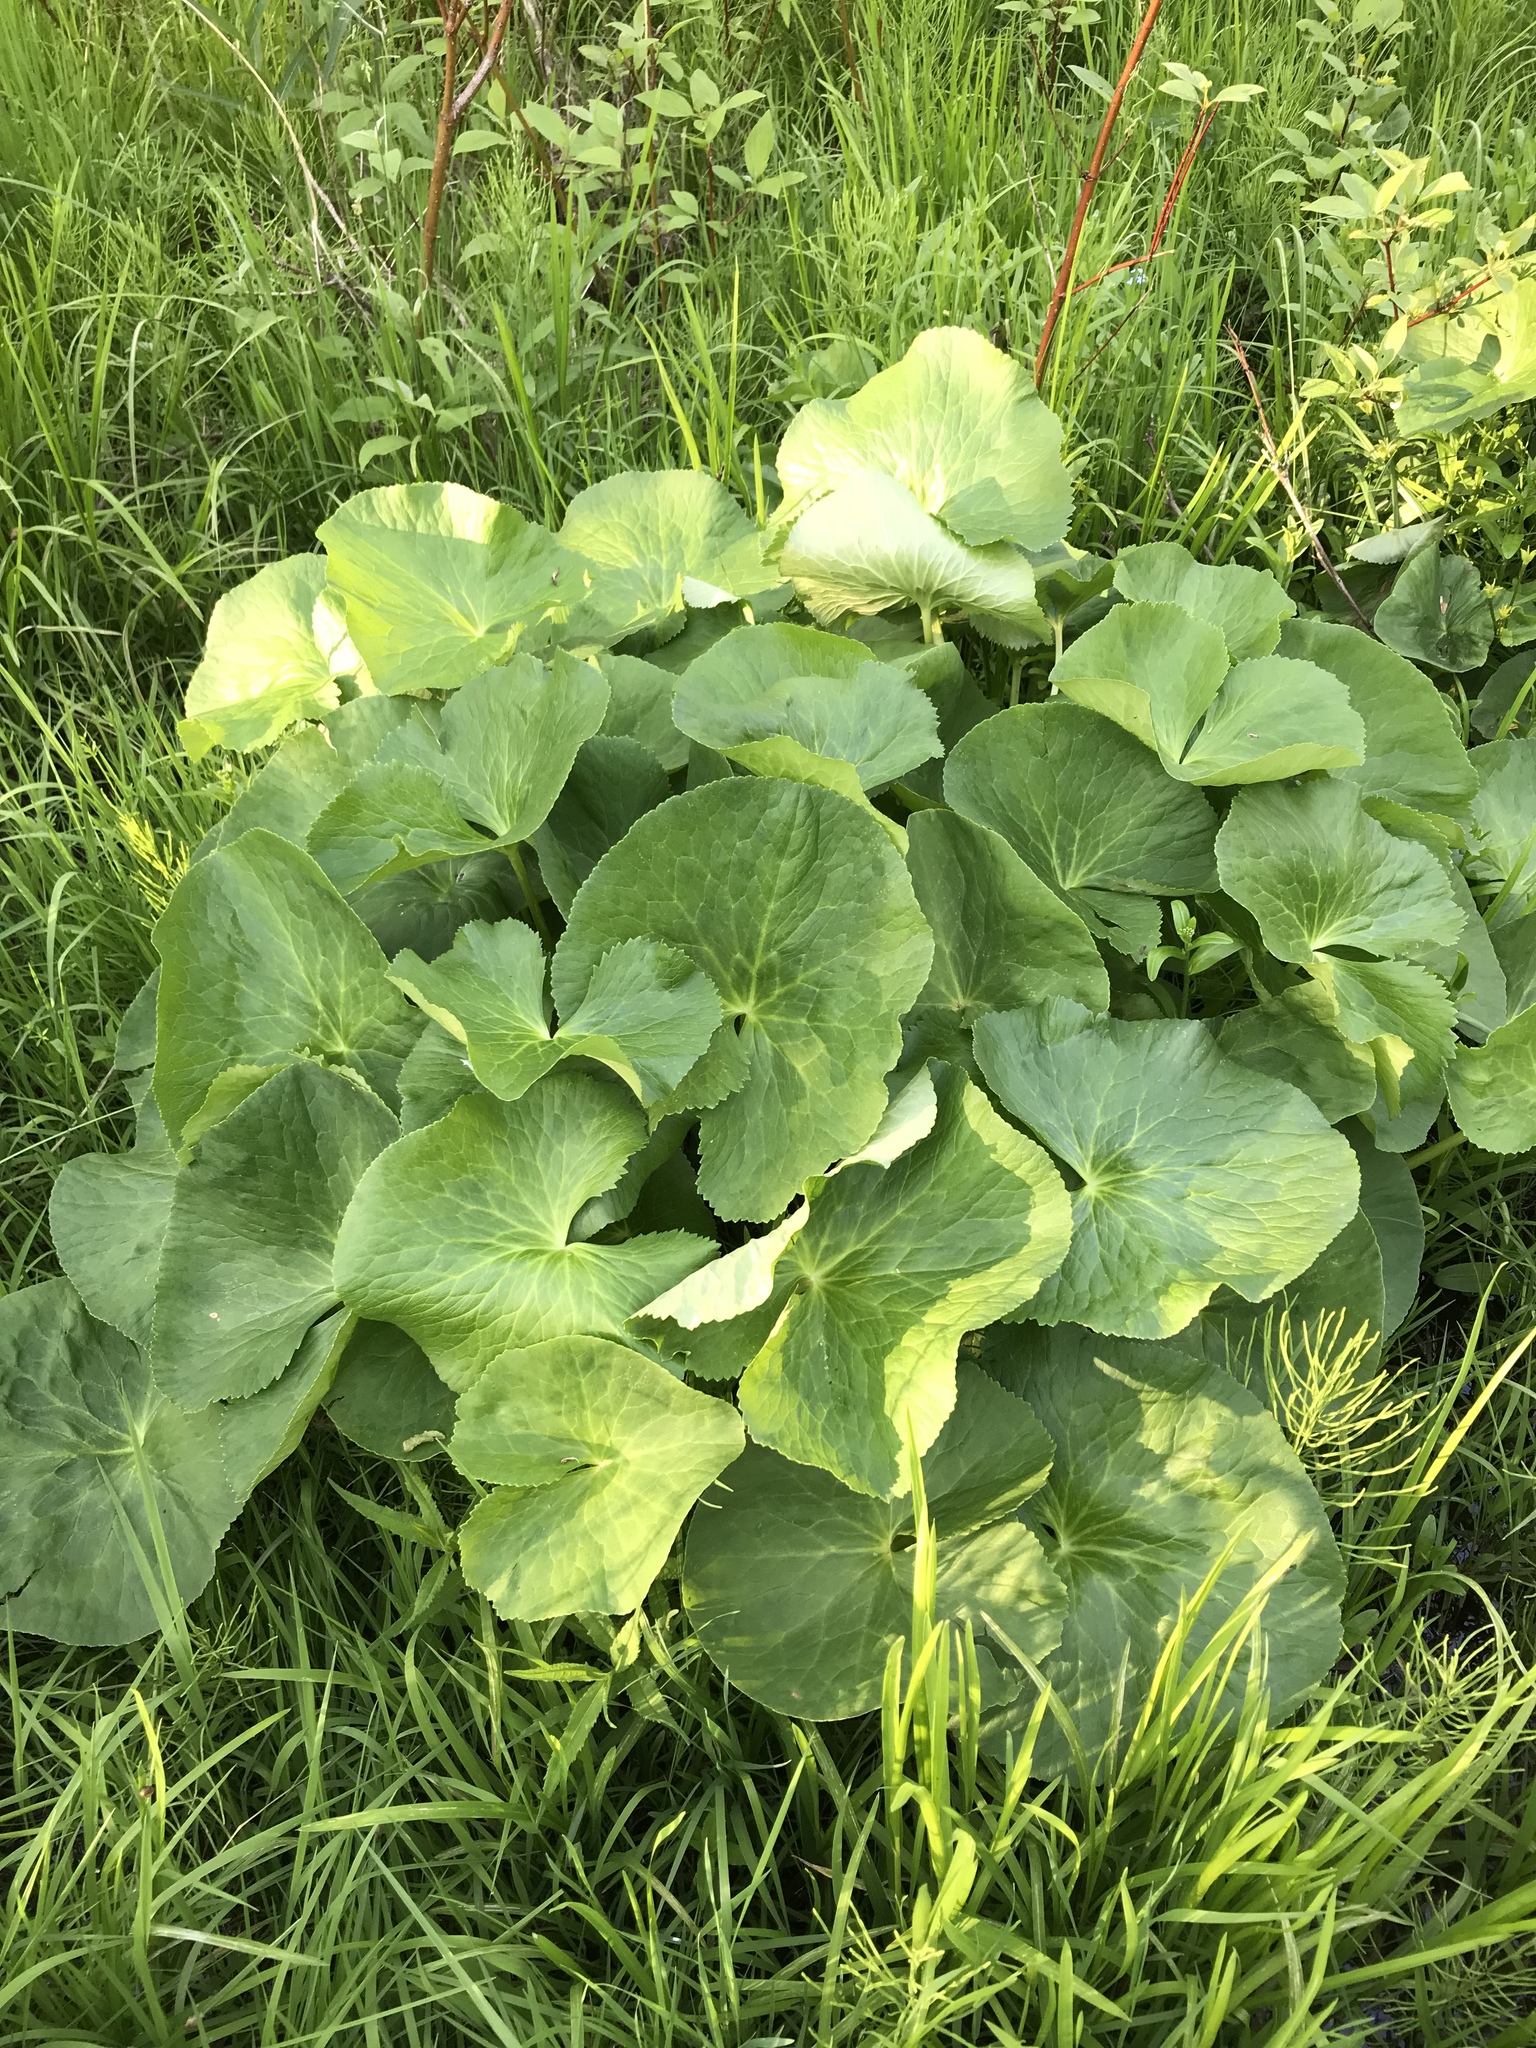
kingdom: Plantae
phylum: Tracheophyta
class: Magnoliopsida
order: Ranunculales
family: Ranunculaceae
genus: Caltha
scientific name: Caltha palustris
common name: Marsh marigold
